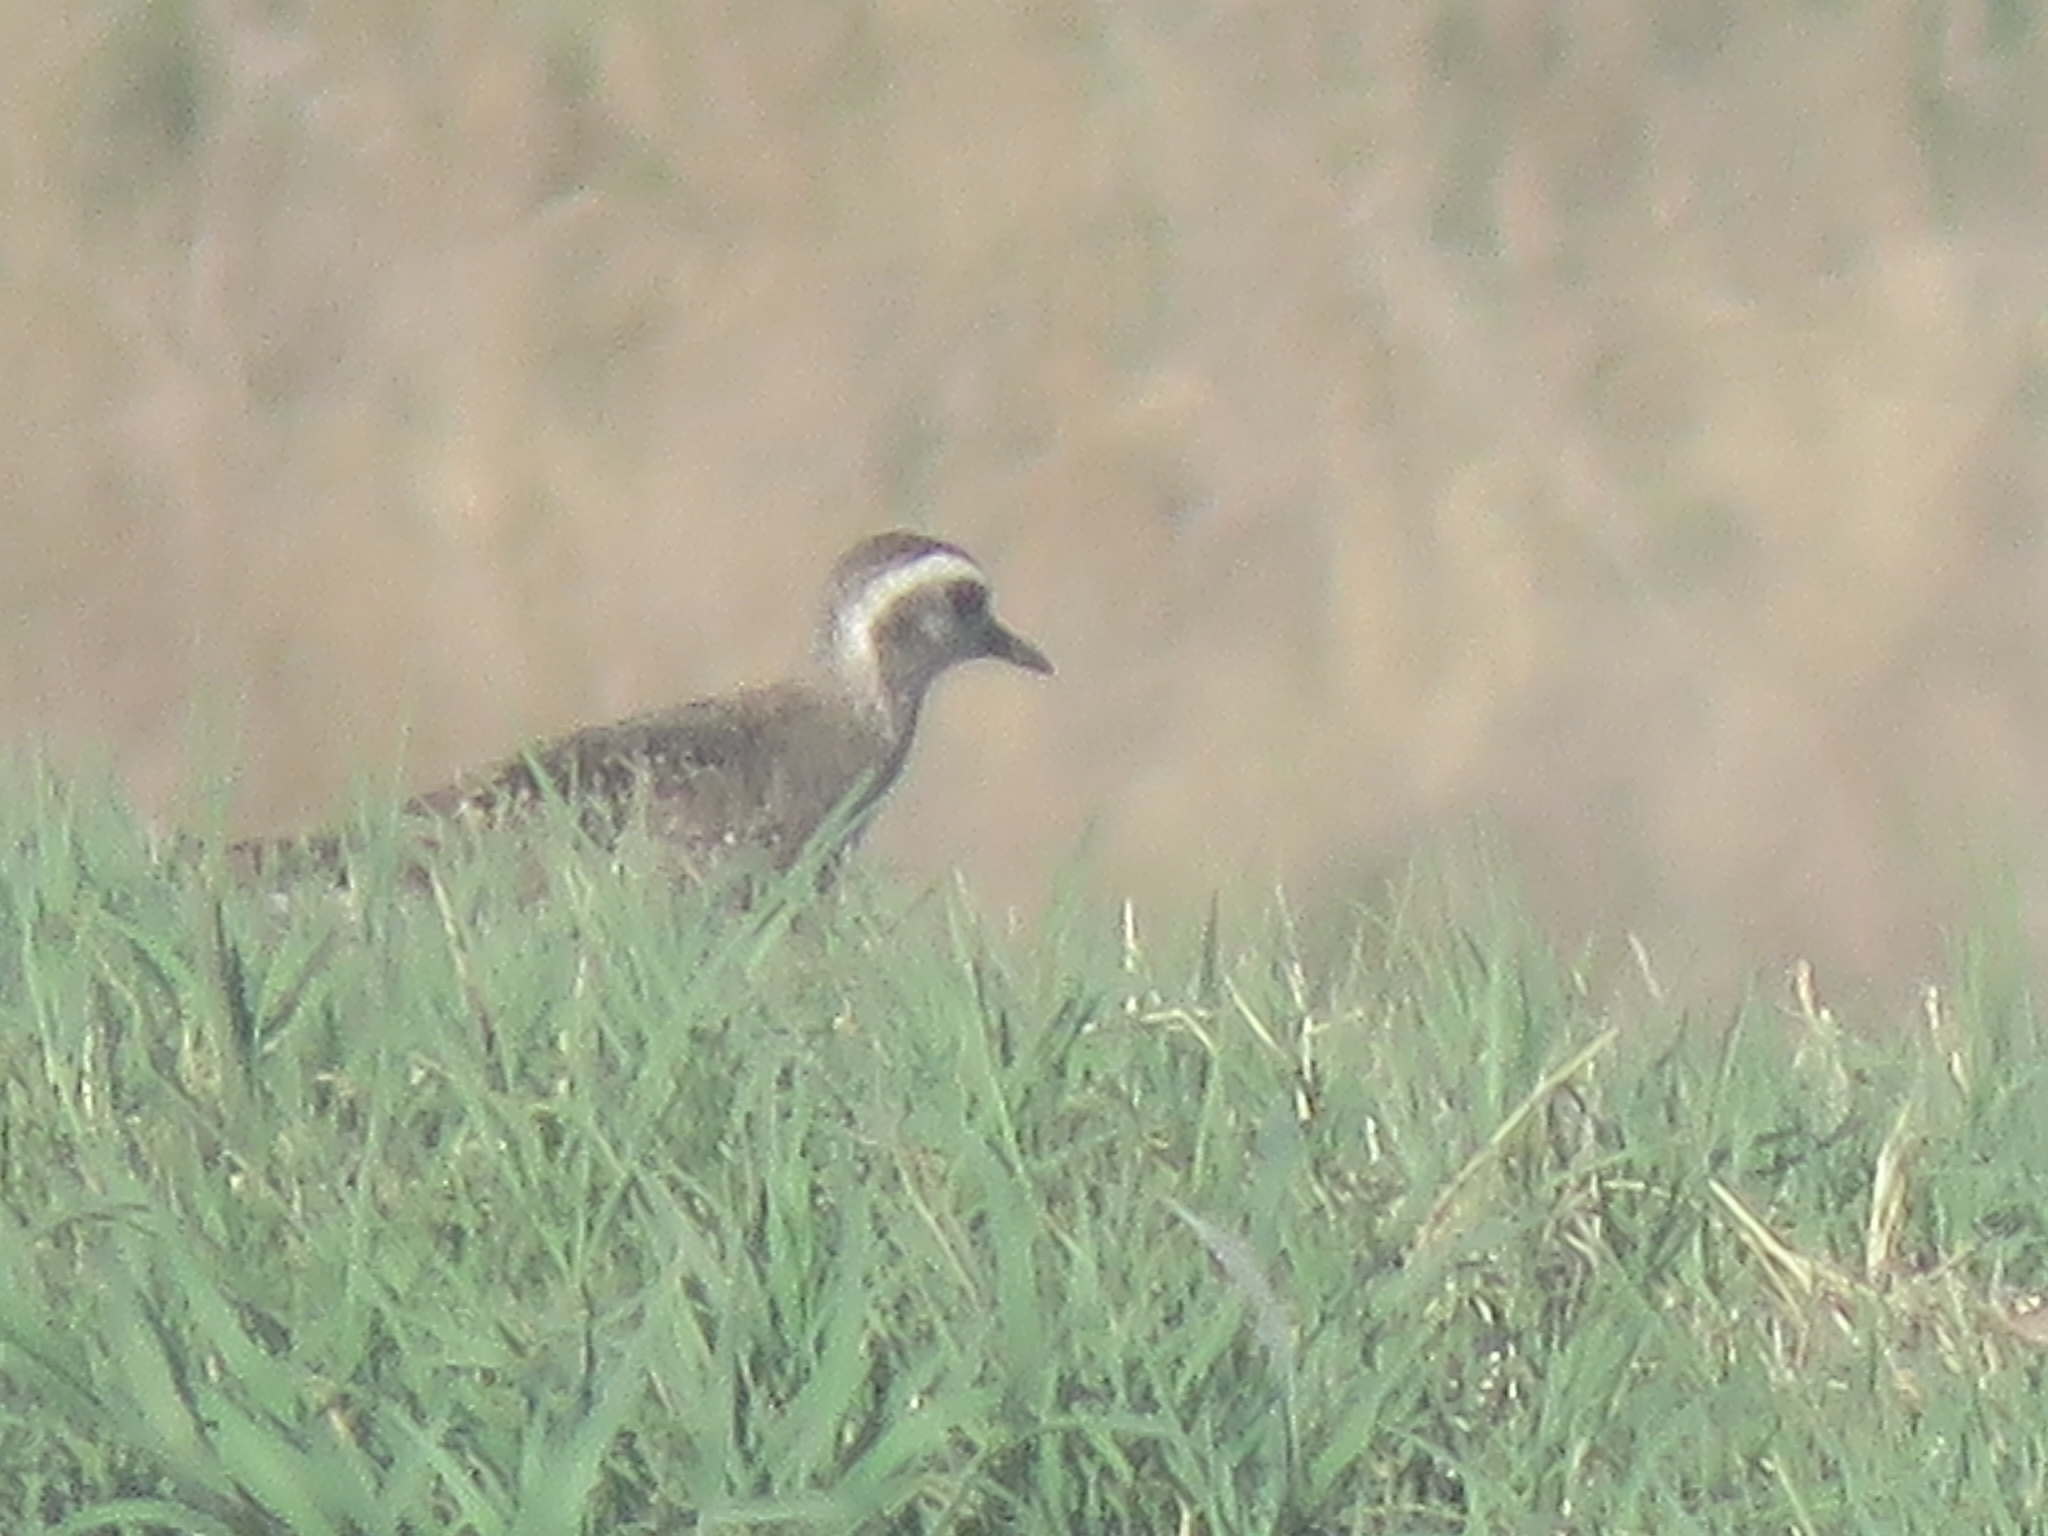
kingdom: Animalia
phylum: Chordata
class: Aves
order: Charadriiformes
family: Charadriidae
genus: Pluvialis
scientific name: Pluvialis dominica
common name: American golden plover
